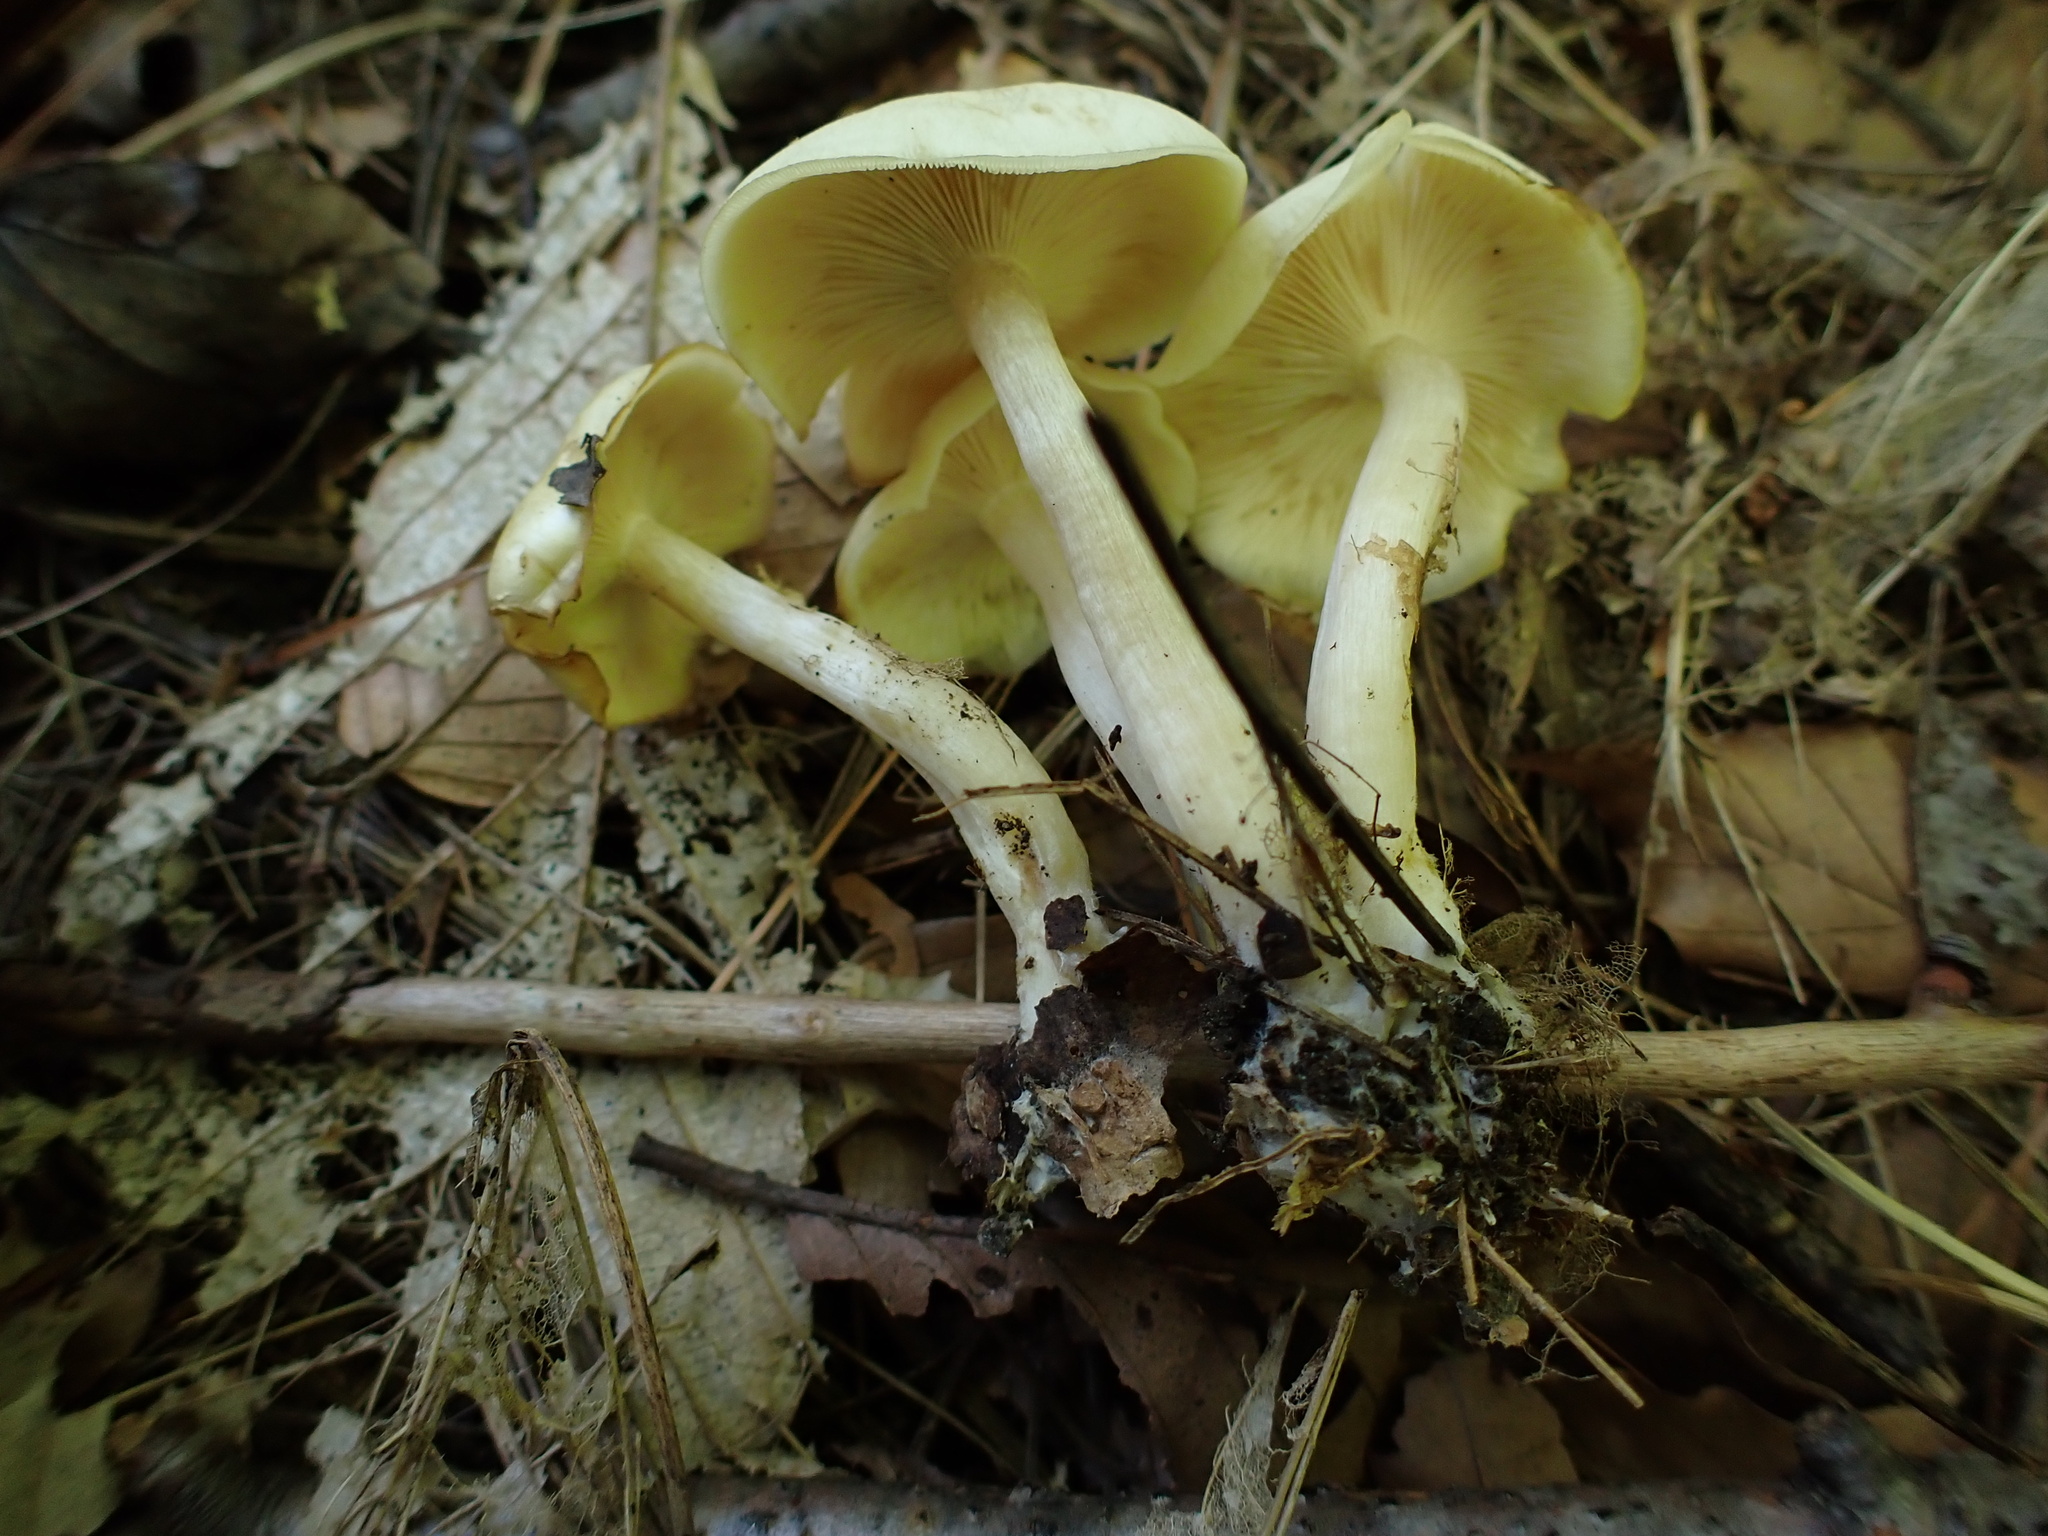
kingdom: Fungi
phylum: Basidiomycota
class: Agaricomycetes
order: Agaricales
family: Tricholomataceae
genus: Collybia
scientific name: Collybia
